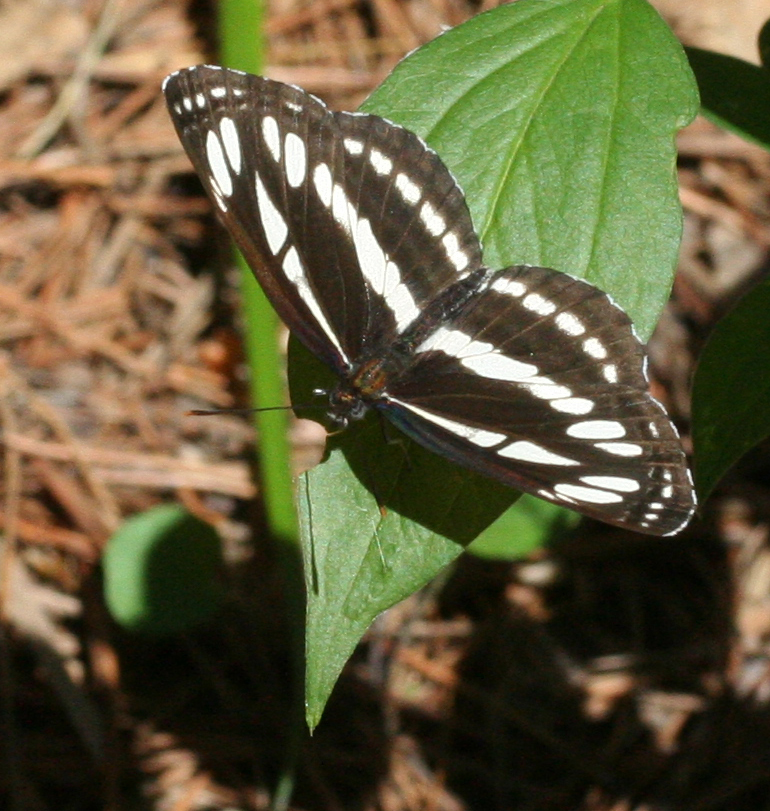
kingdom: Animalia
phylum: Arthropoda
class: Insecta
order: Lepidoptera
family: Nymphalidae
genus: Neptis
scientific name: Neptis sappho
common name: Common glider
